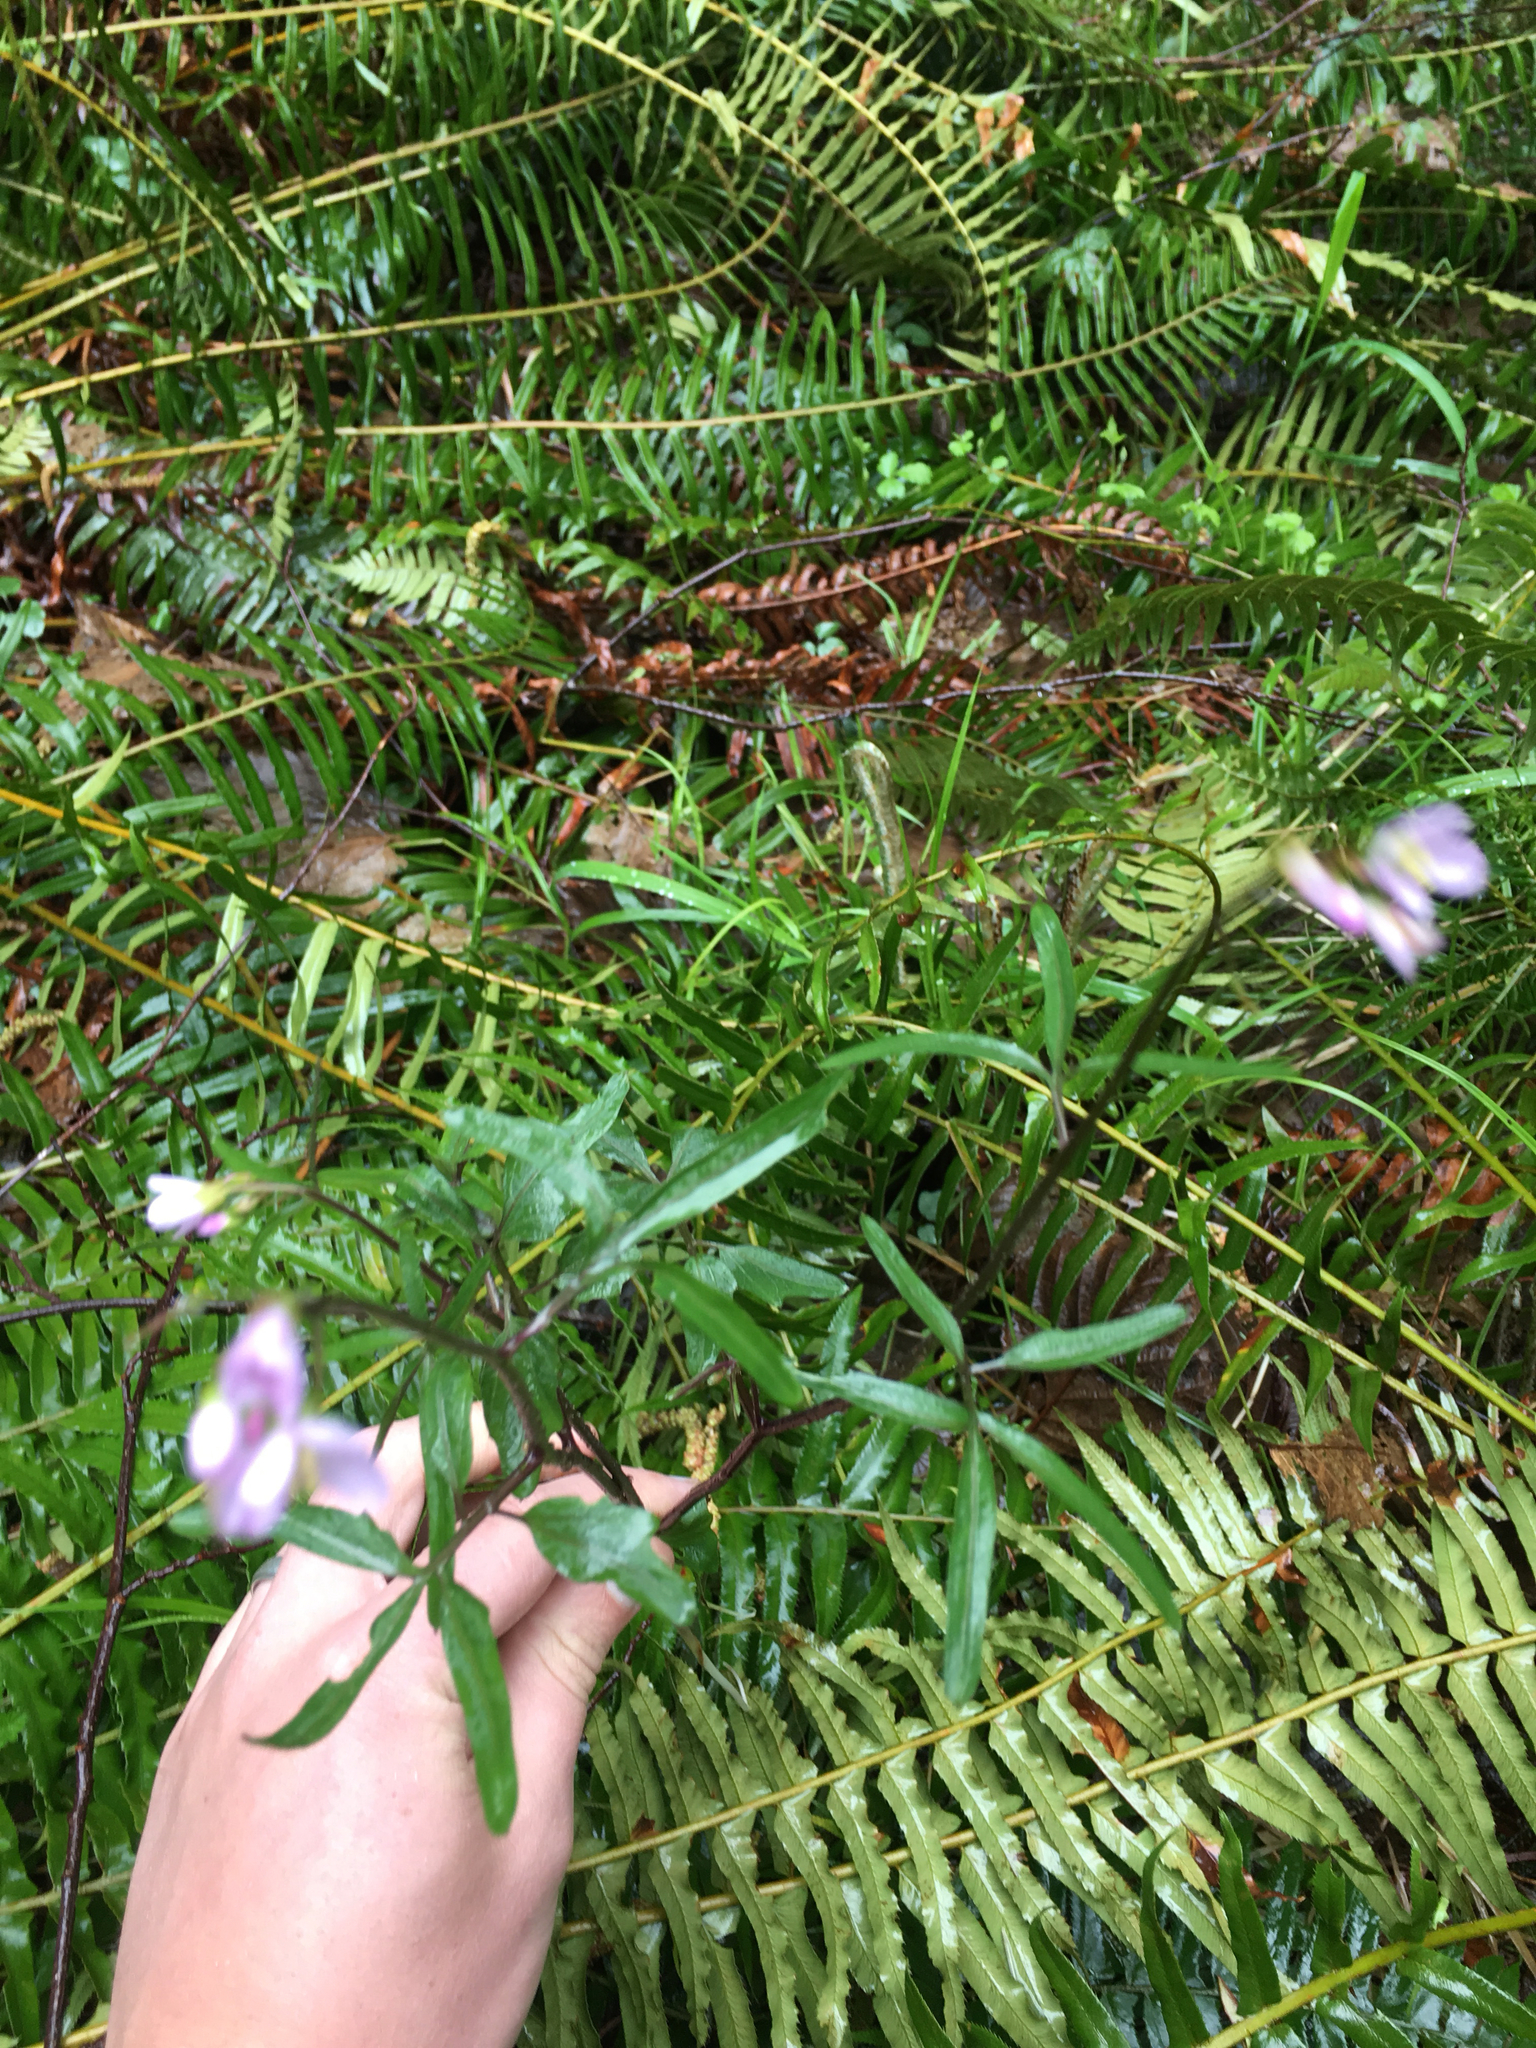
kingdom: Plantae
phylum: Tracheophyta
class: Magnoliopsida
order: Brassicales
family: Brassicaceae
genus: Cardamine
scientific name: Cardamine nuttallii
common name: Nuttall's toothwort
